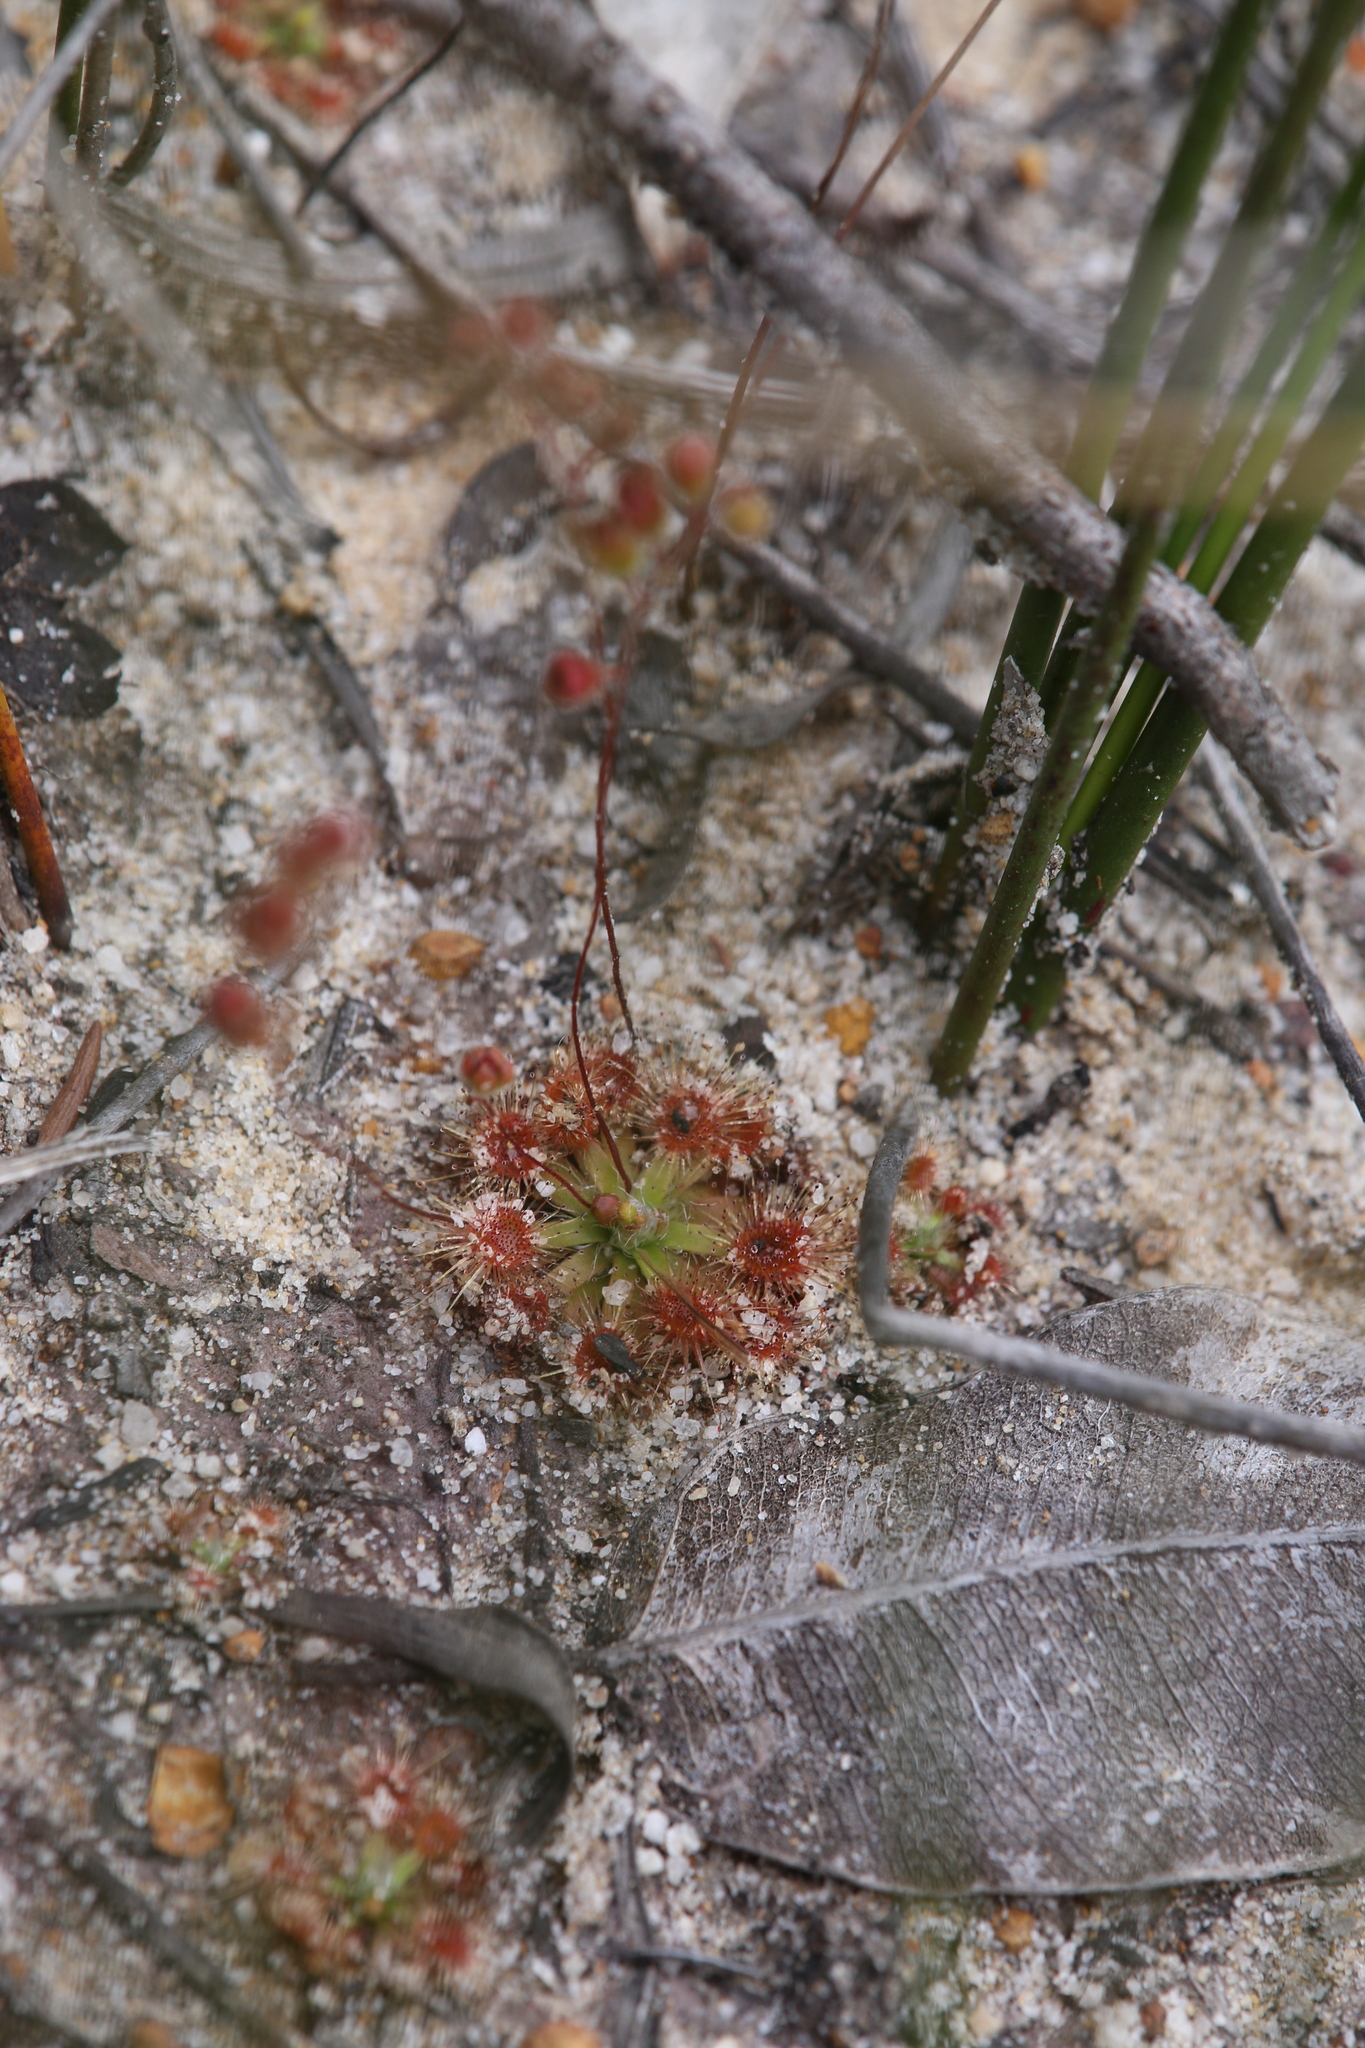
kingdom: Plantae
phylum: Tracheophyta
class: Magnoliopsida
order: Caryophyllales
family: Droseraceae
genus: Drosera
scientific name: Drosera pulchella
